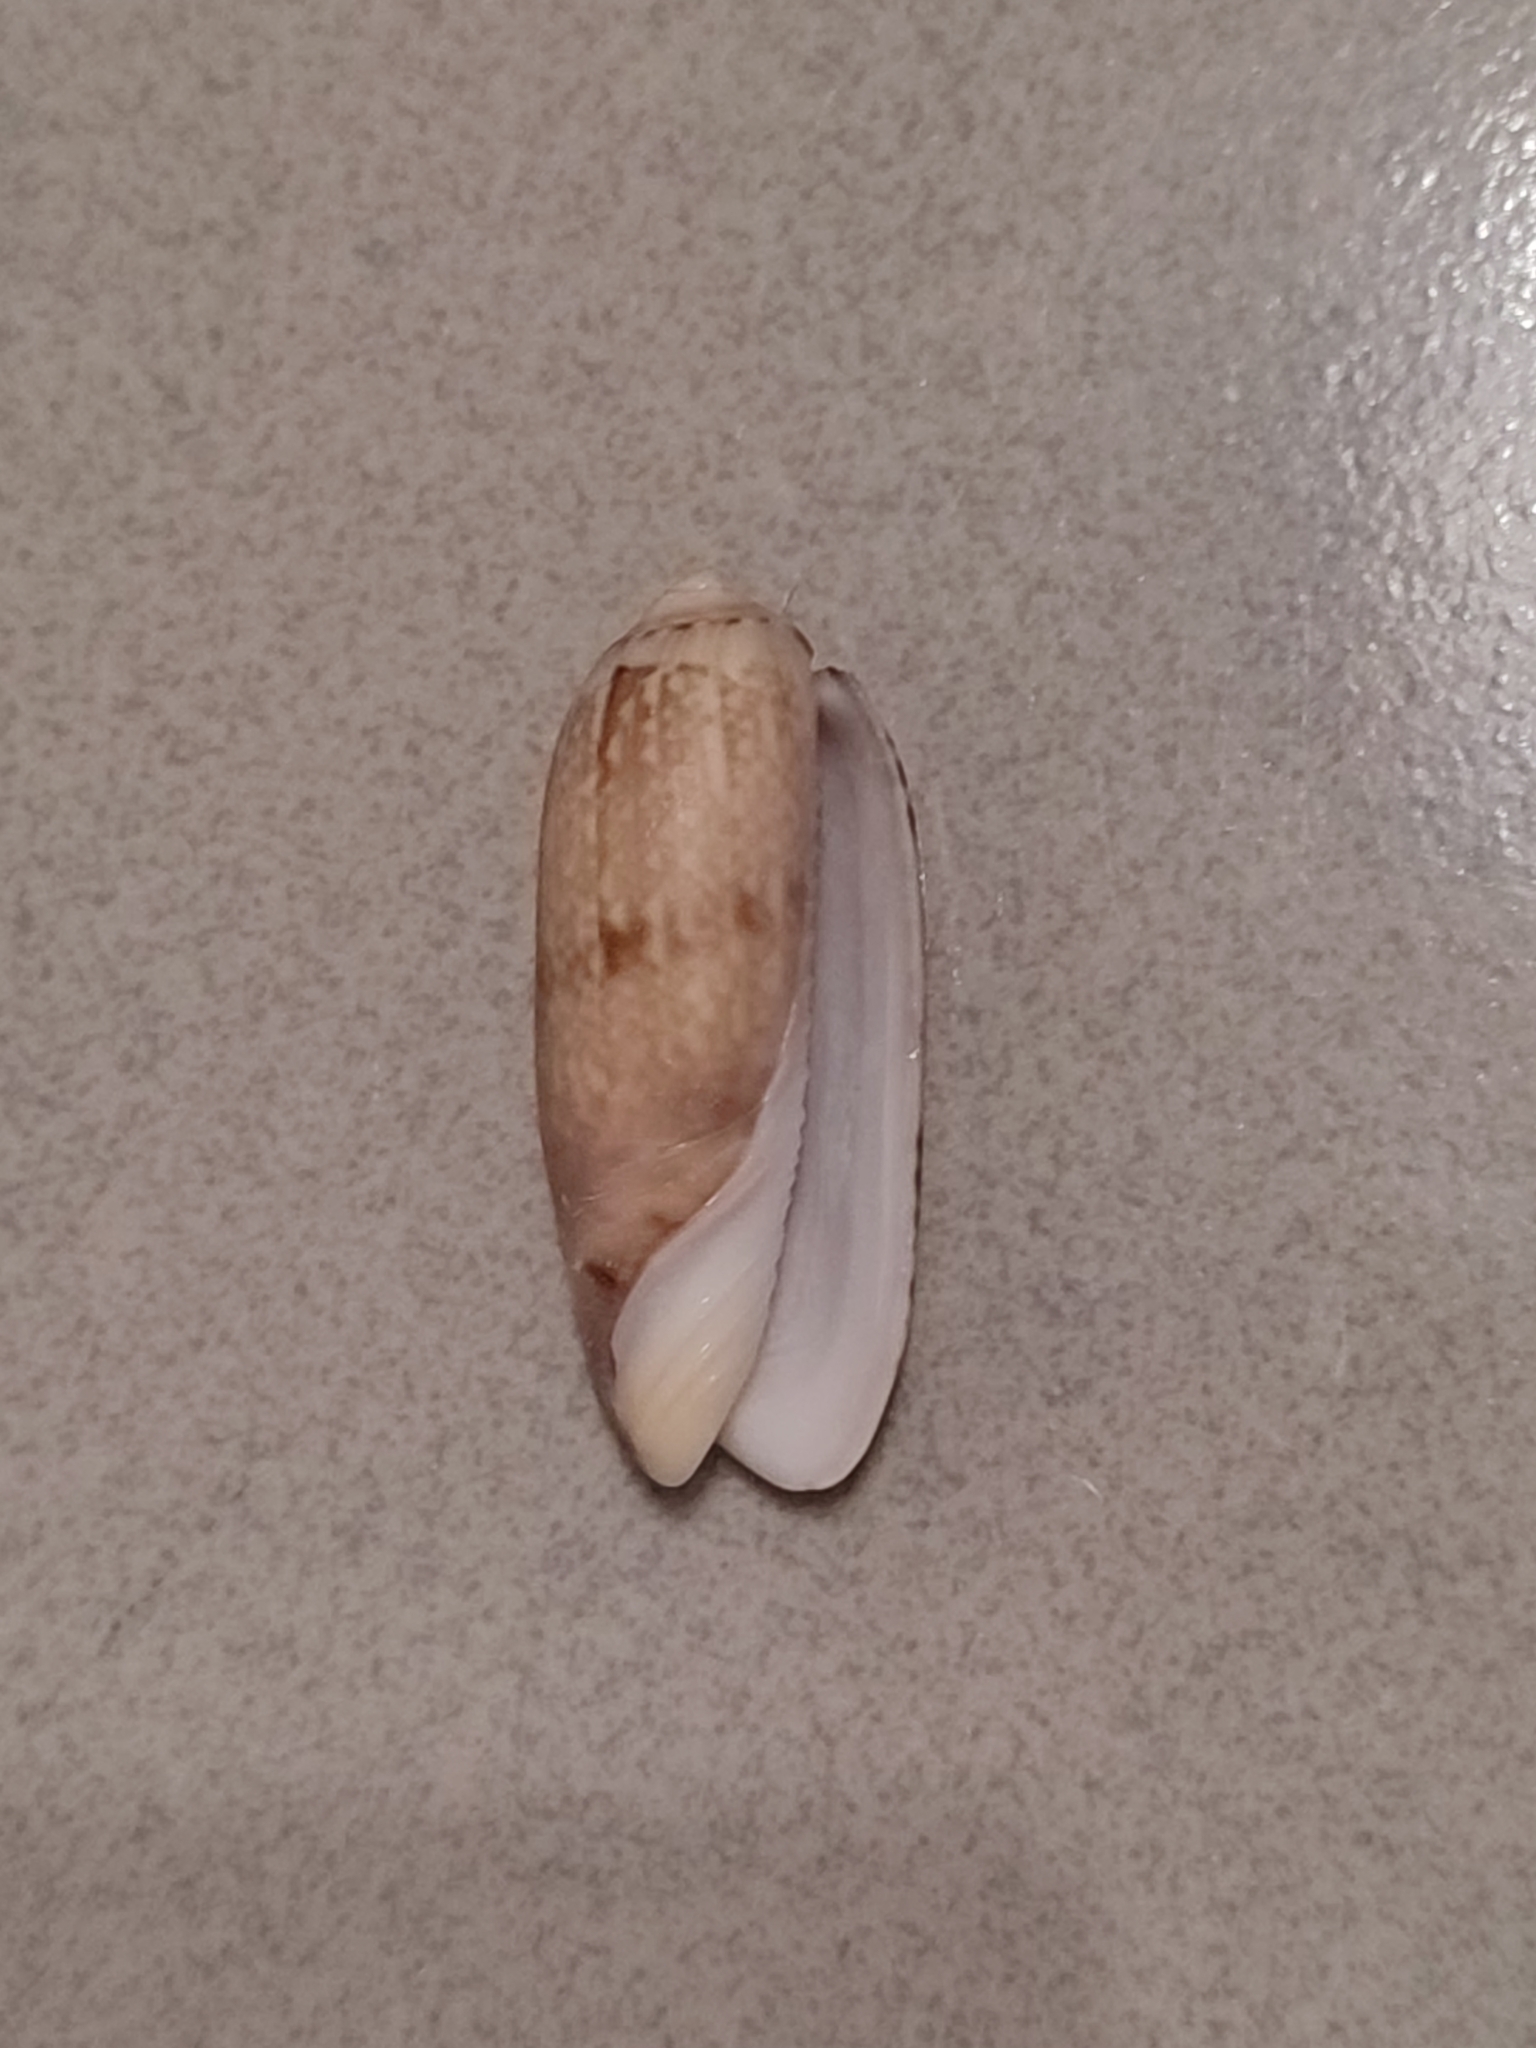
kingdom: Animalia
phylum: Mollusca
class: Gastropoda
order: Neogastropoda
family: Olividae
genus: Oliva
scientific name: Oliva irisans
